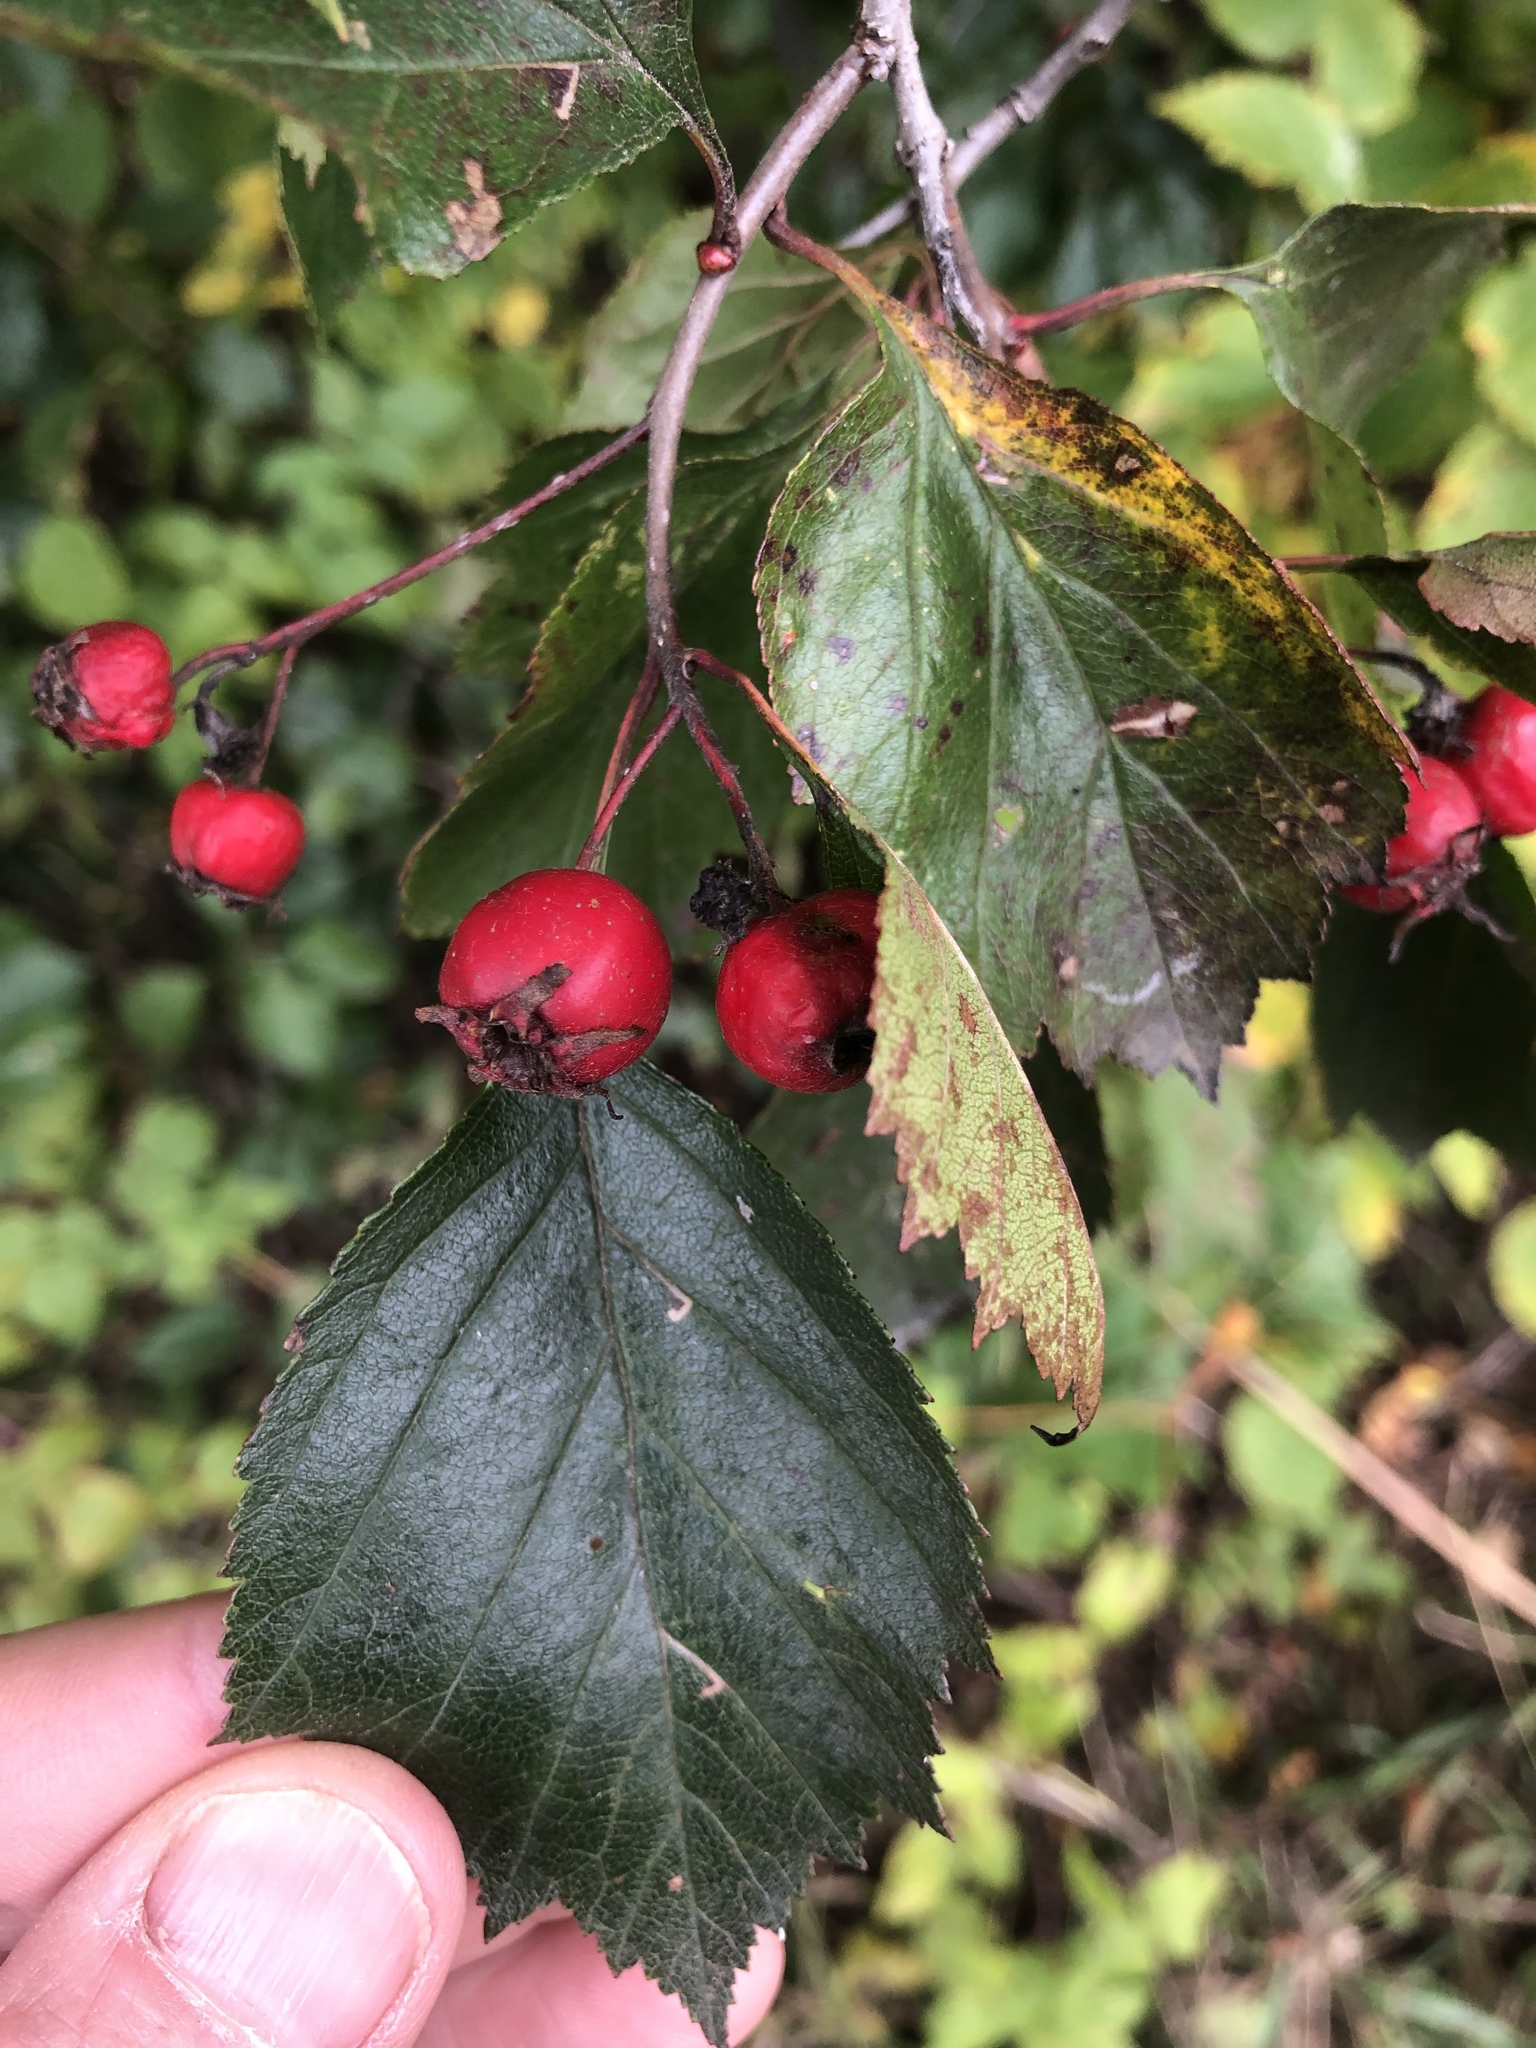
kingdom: Plantae
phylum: Tracheophyta
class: Magnoliopsida
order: Rosales
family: Rosaceae
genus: Crataegus
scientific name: Crataegus douglasii
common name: Black hawthorn
